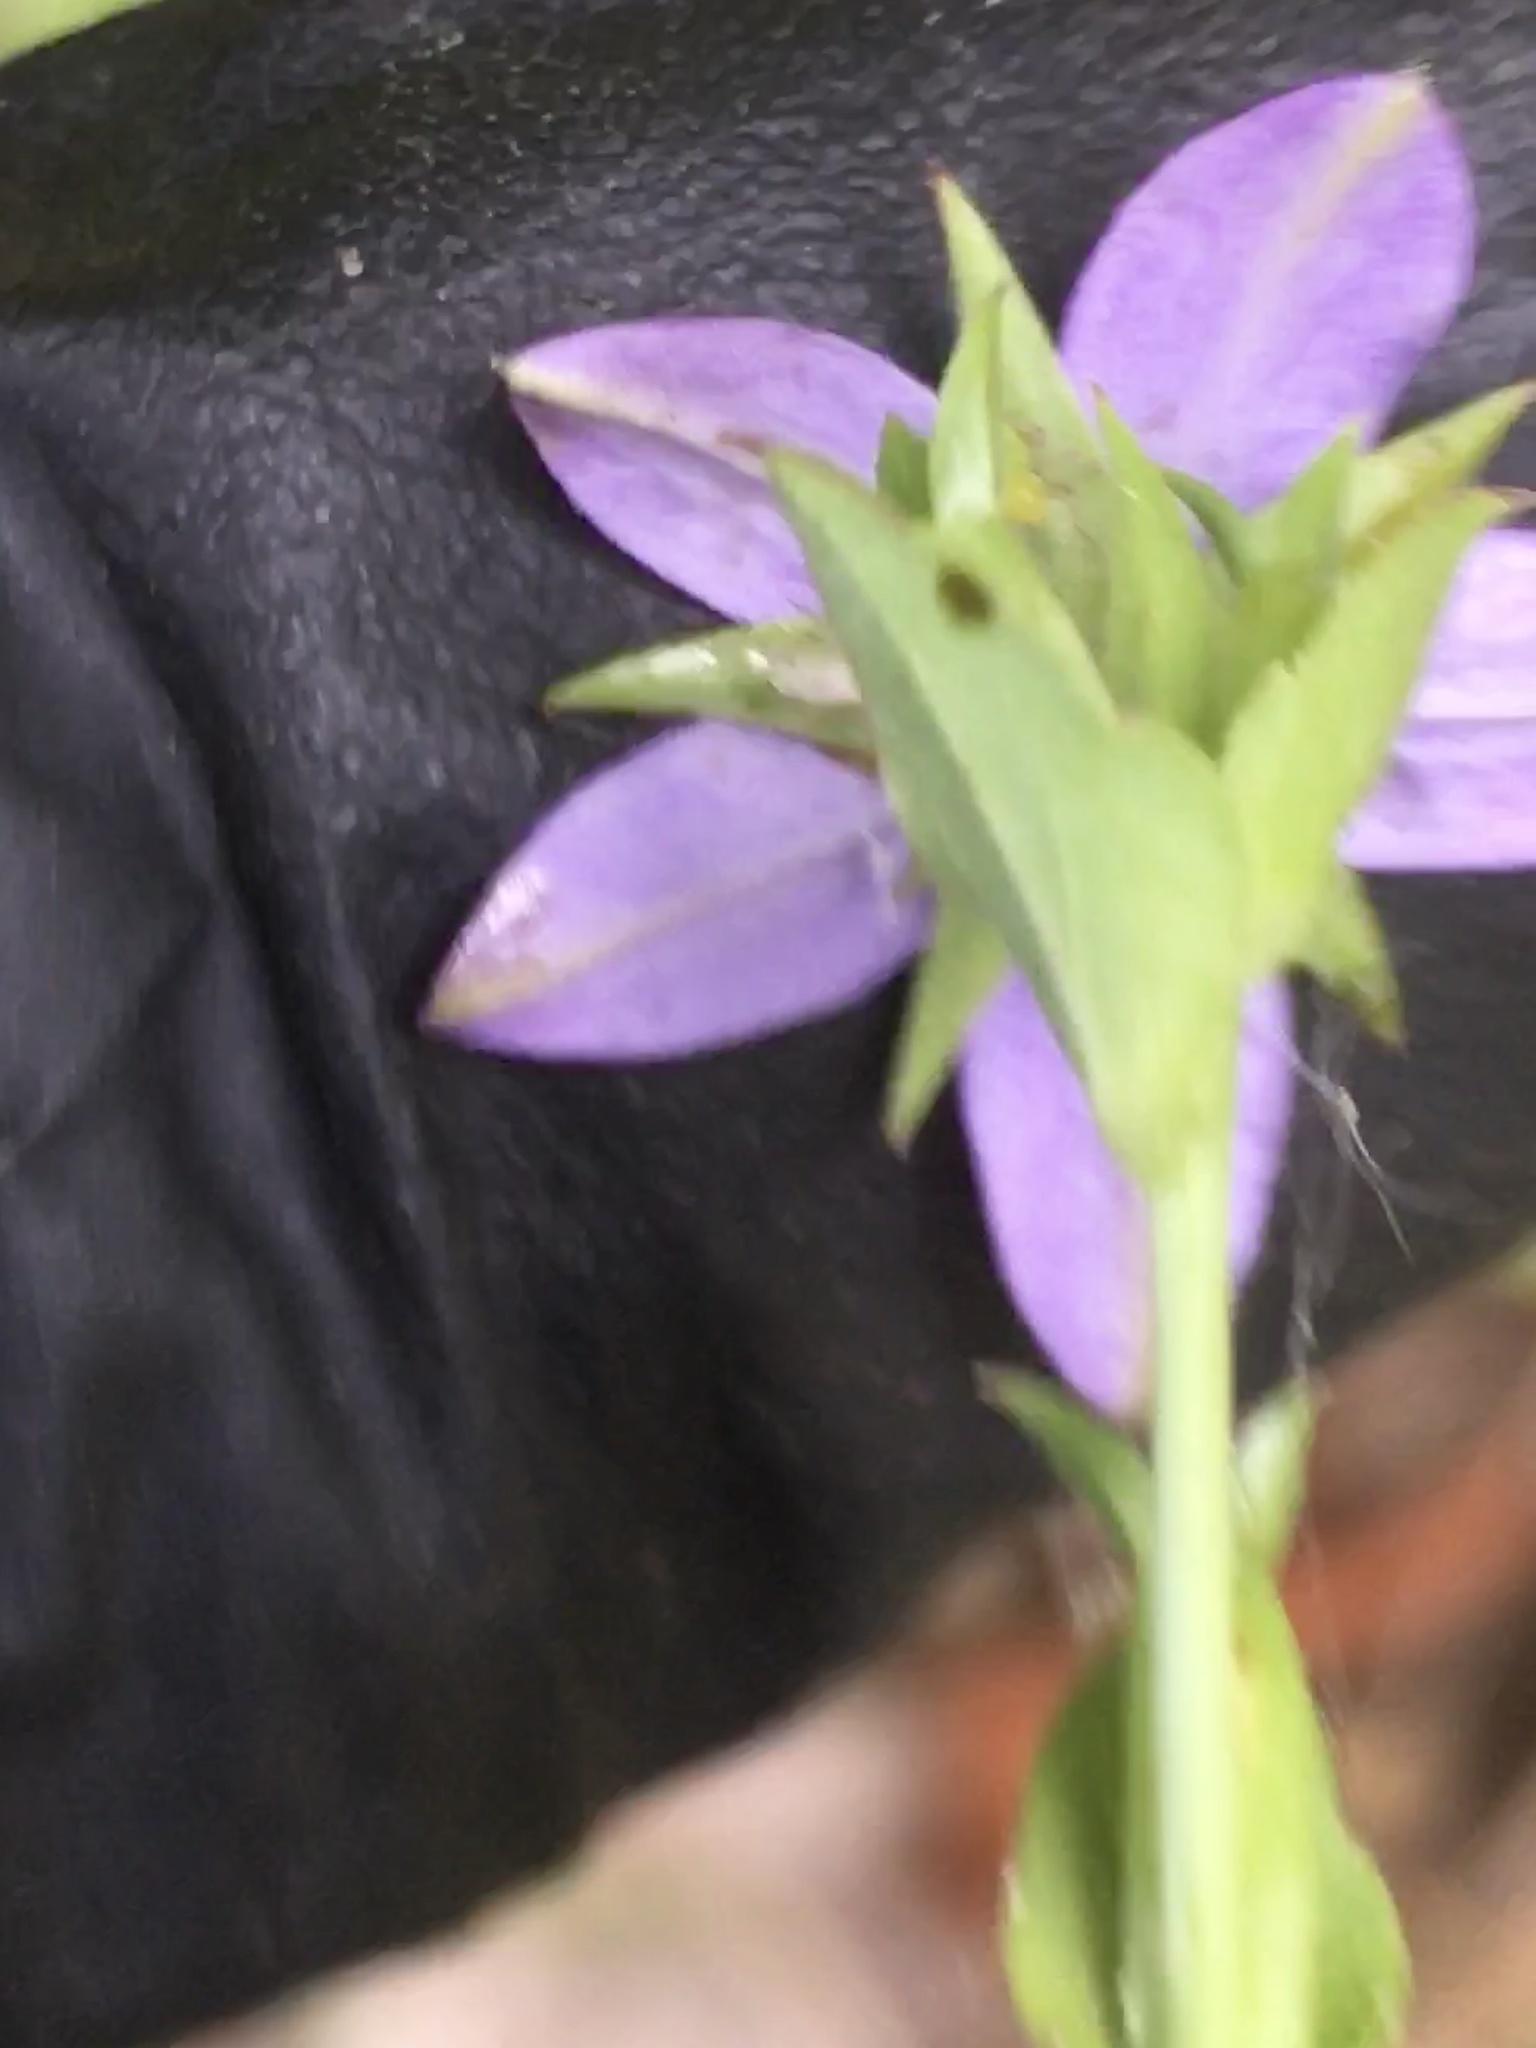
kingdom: Plantae
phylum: Tracheophyta
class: Magnoliopsida
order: Asterales
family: Campanulaceae
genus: Triodanis
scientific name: Triodanis biflora
